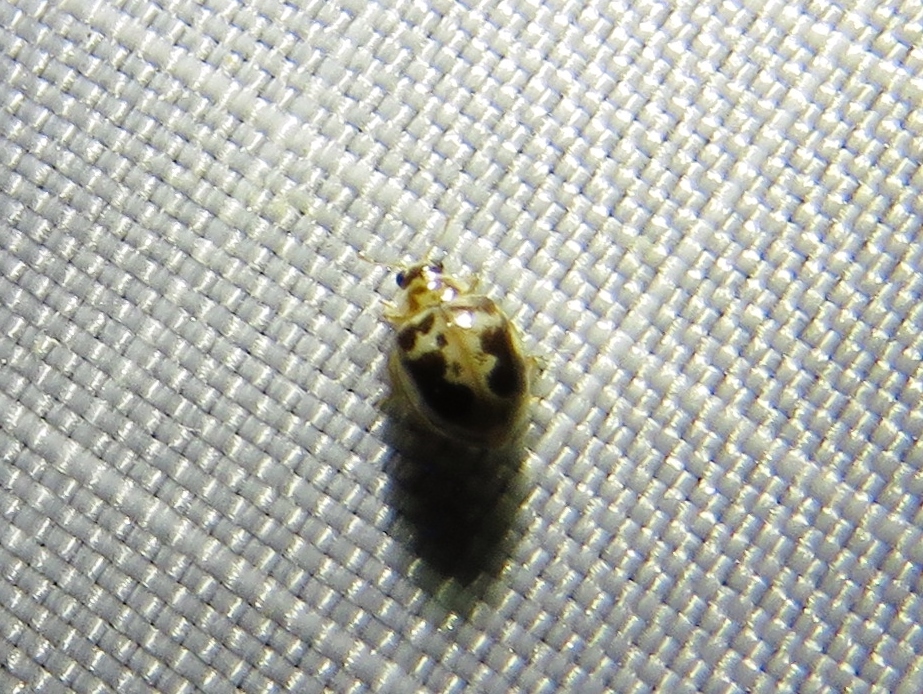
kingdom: Animalia
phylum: Arthropoda
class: Insecta
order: Coleoptera
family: Coccinellidae
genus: Psyllobora
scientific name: Psyllobora renifer
